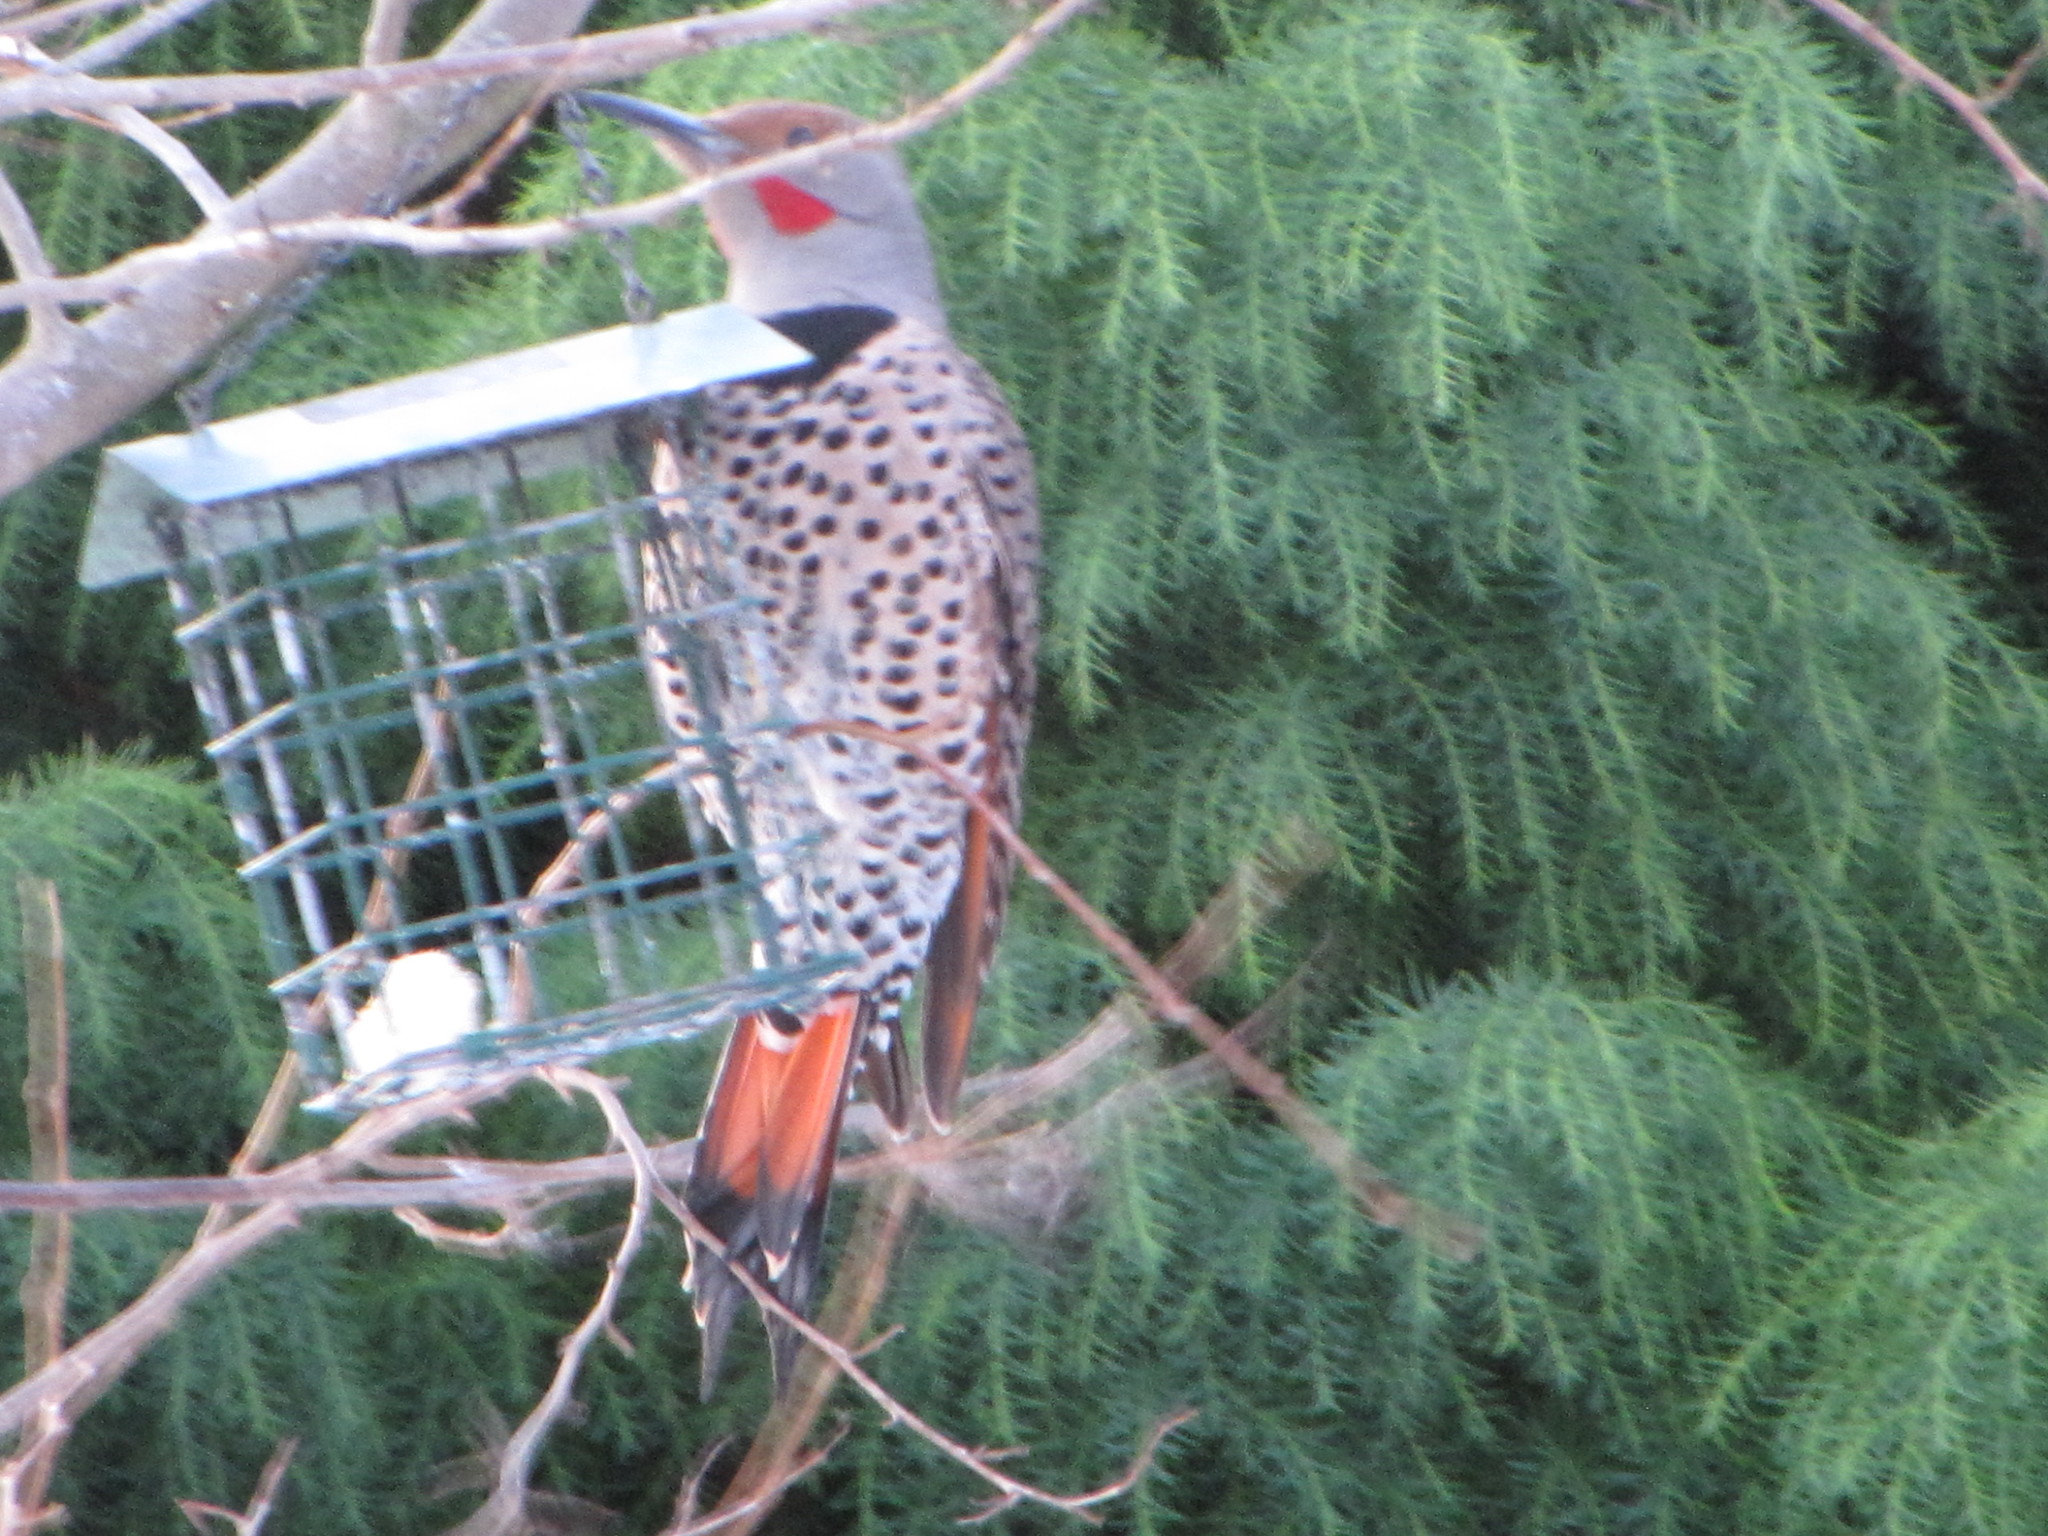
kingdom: Animalia
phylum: Chordata
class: Aves
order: Piciformes
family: Picidae
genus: Colaptes
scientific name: Colaptes auratus
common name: Northern flicker
